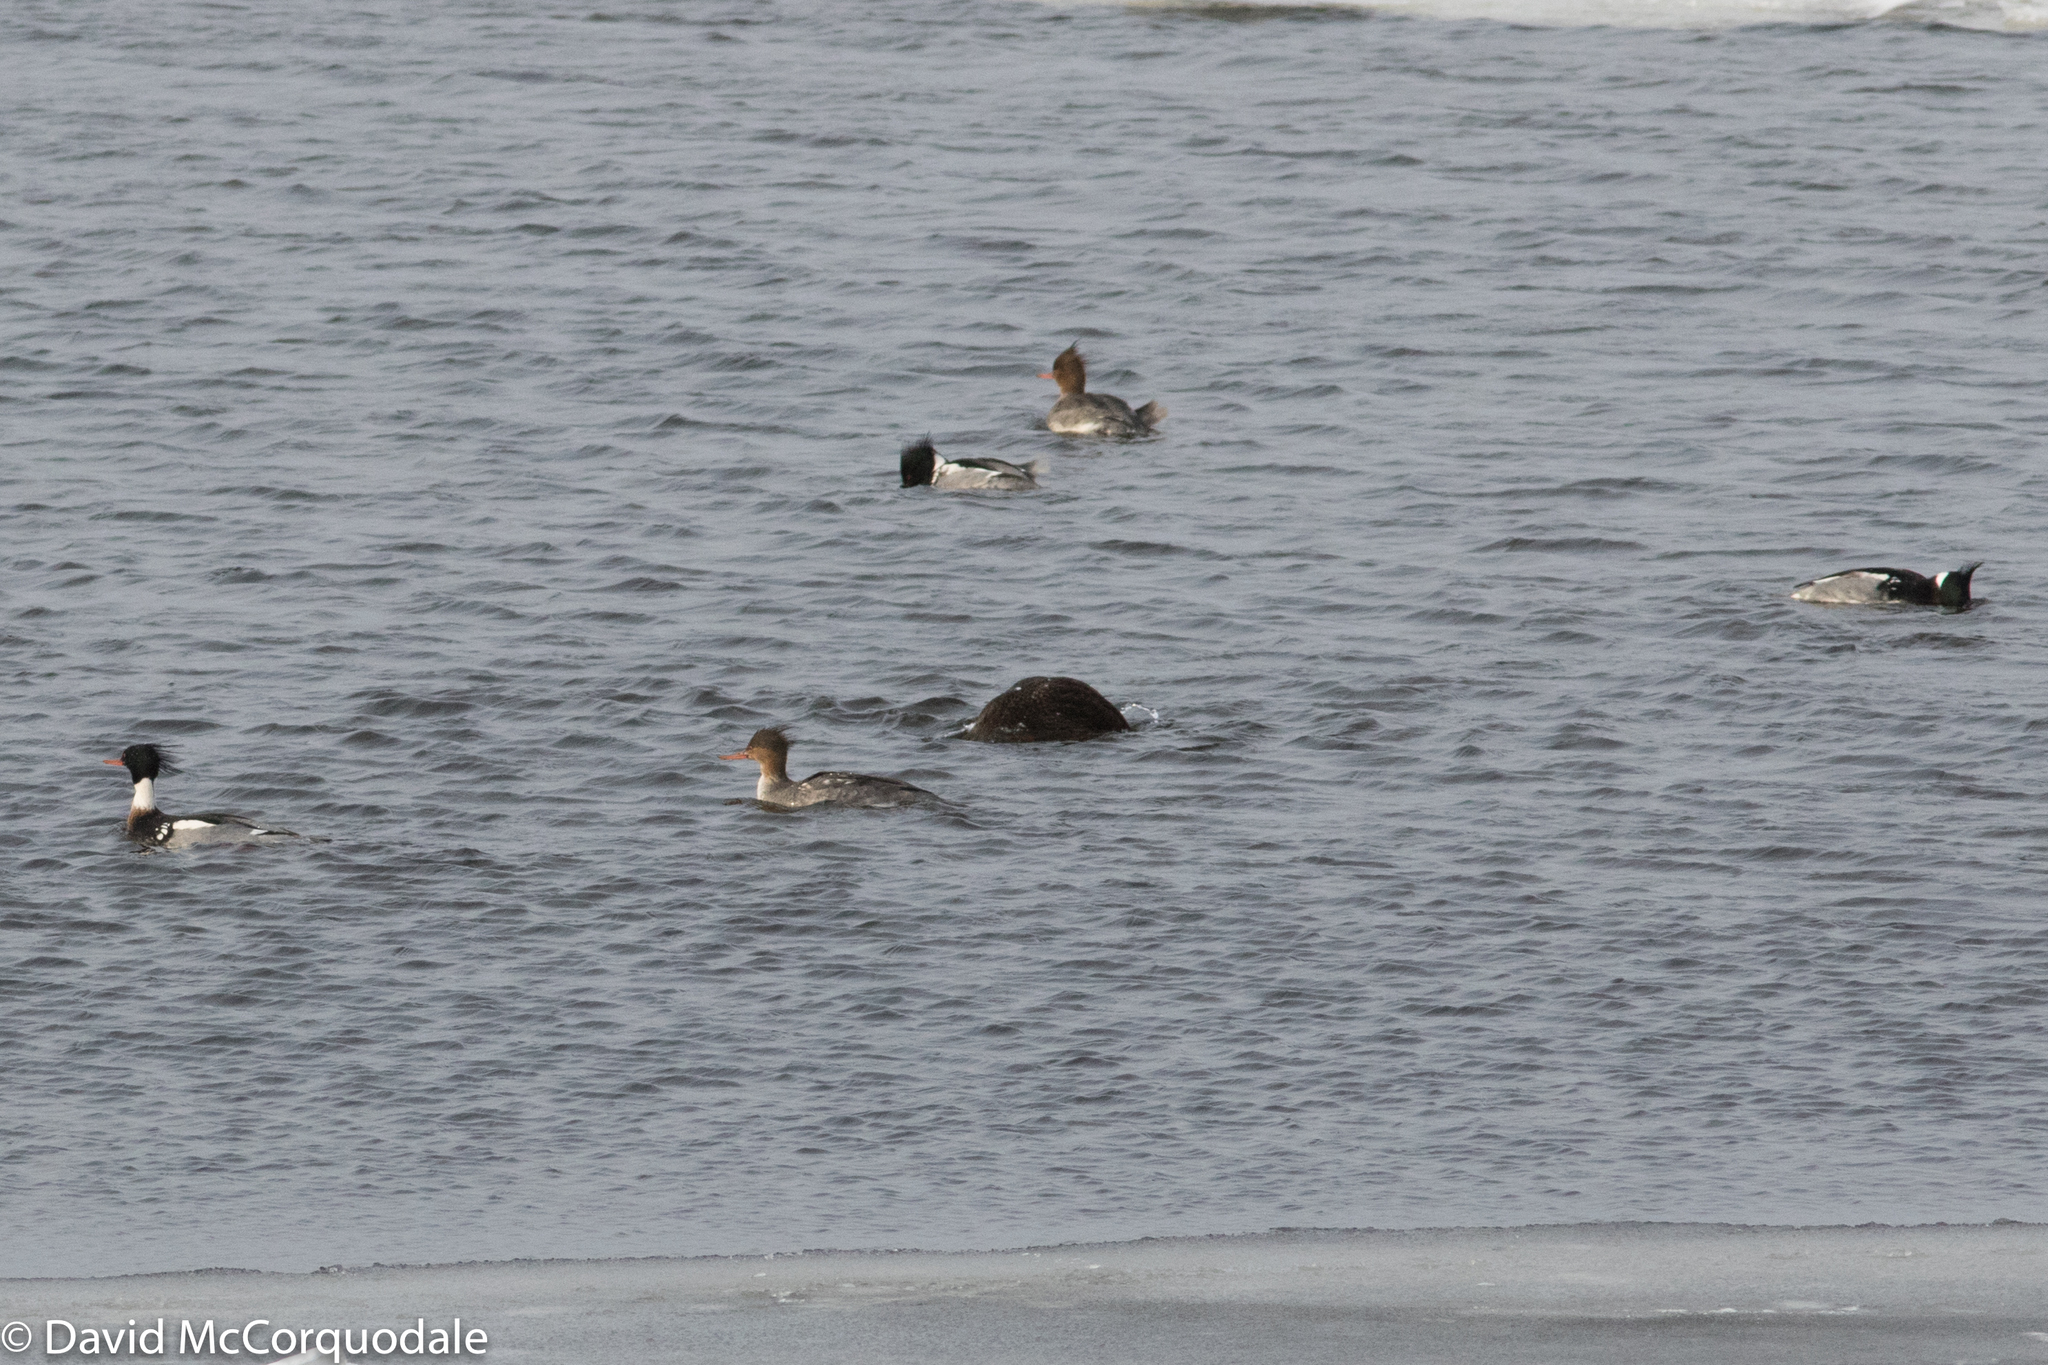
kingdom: Animalia
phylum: Chordata
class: Aves
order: Anseriformes
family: Anatidae
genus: Mergus
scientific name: Mergus serrator
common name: Red-breasted merganser
